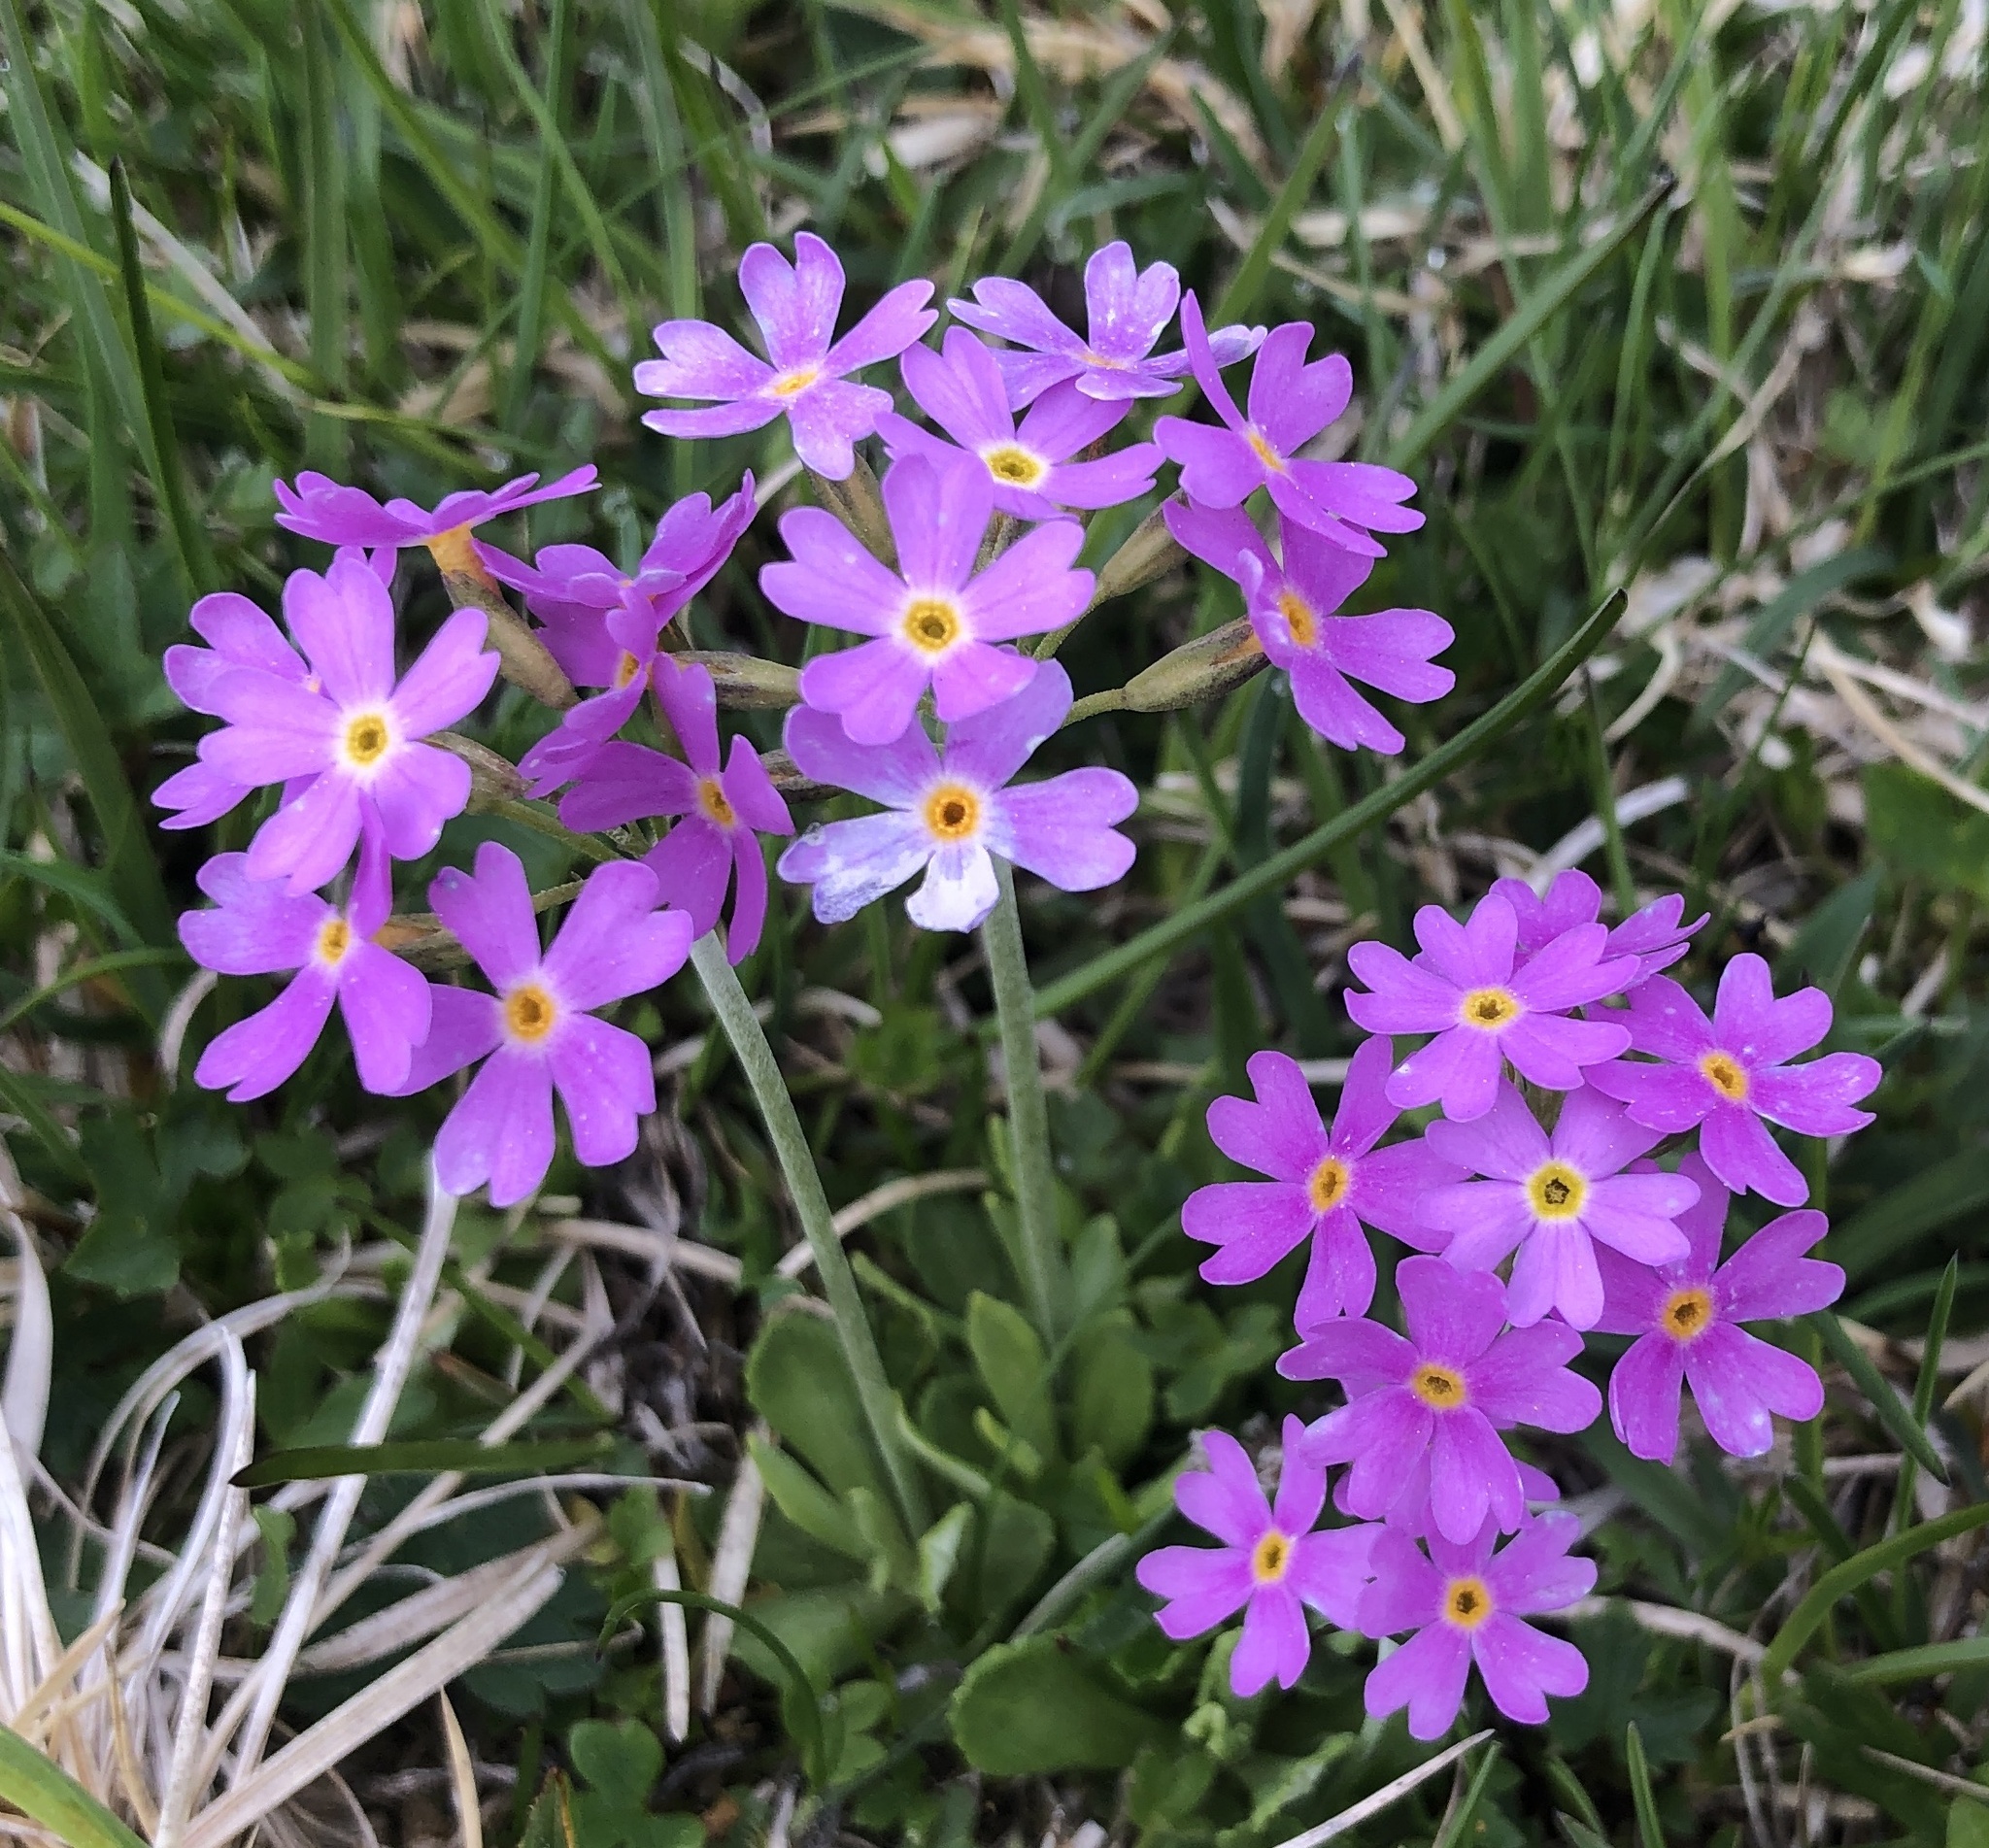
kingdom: Plantae
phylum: Tracheophyta
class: Magnoliopsida
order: Ericales
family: Primulaceae
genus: Primula
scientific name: Primula farinosa
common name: Bird's-eye primrose
